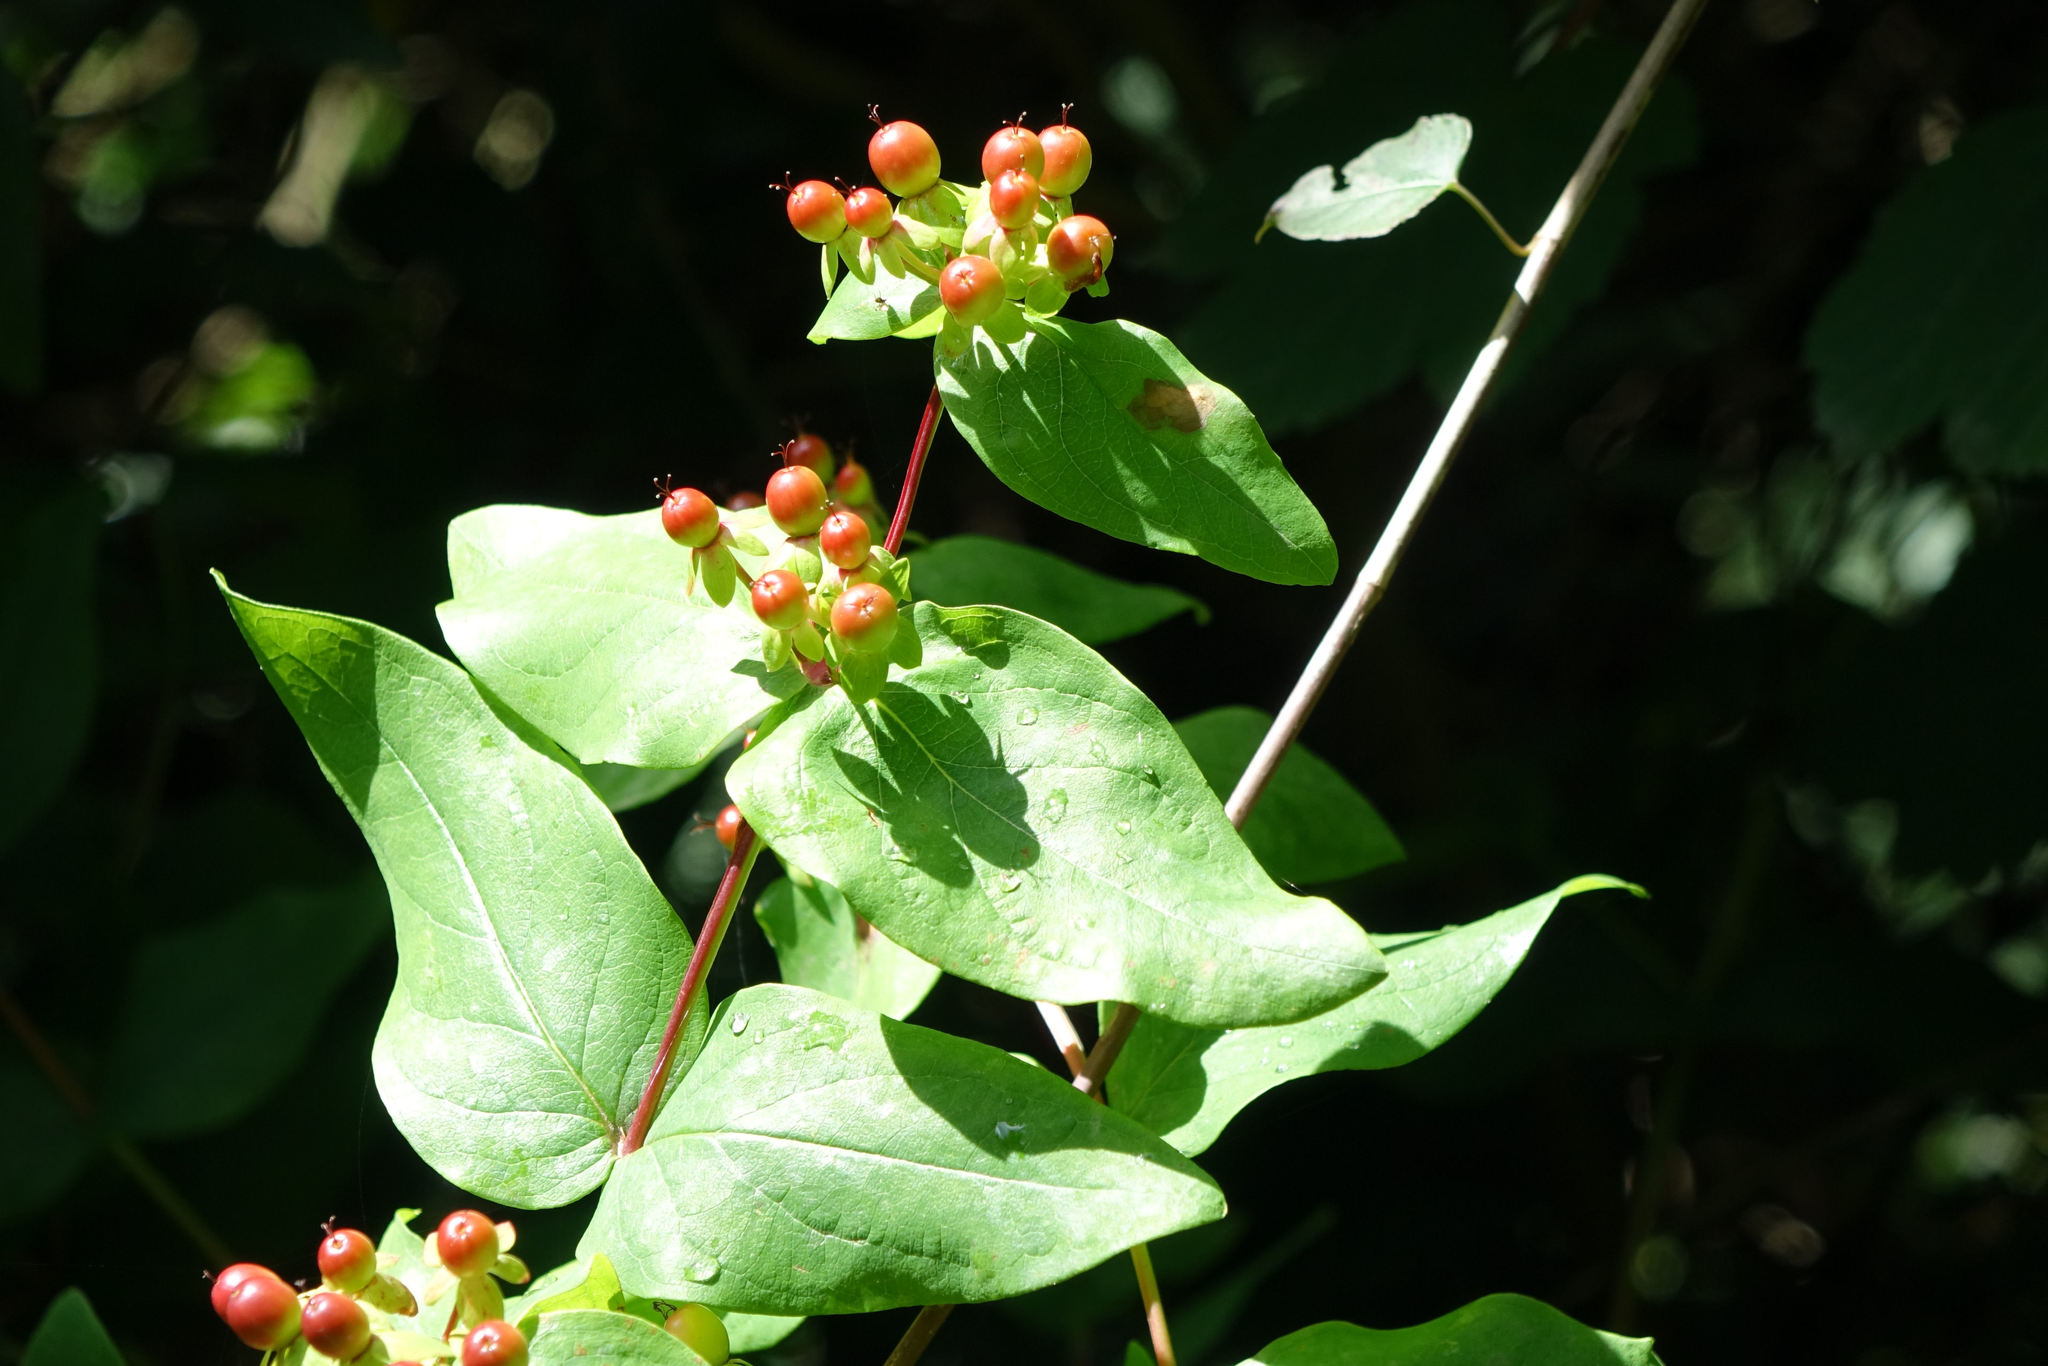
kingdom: Plantae
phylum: Tracheophyta
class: Magnoliopsida
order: Malpighiales
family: Hypericaceae
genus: Hypericum
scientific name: Hypericum androsaemum
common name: Sweet-amber
